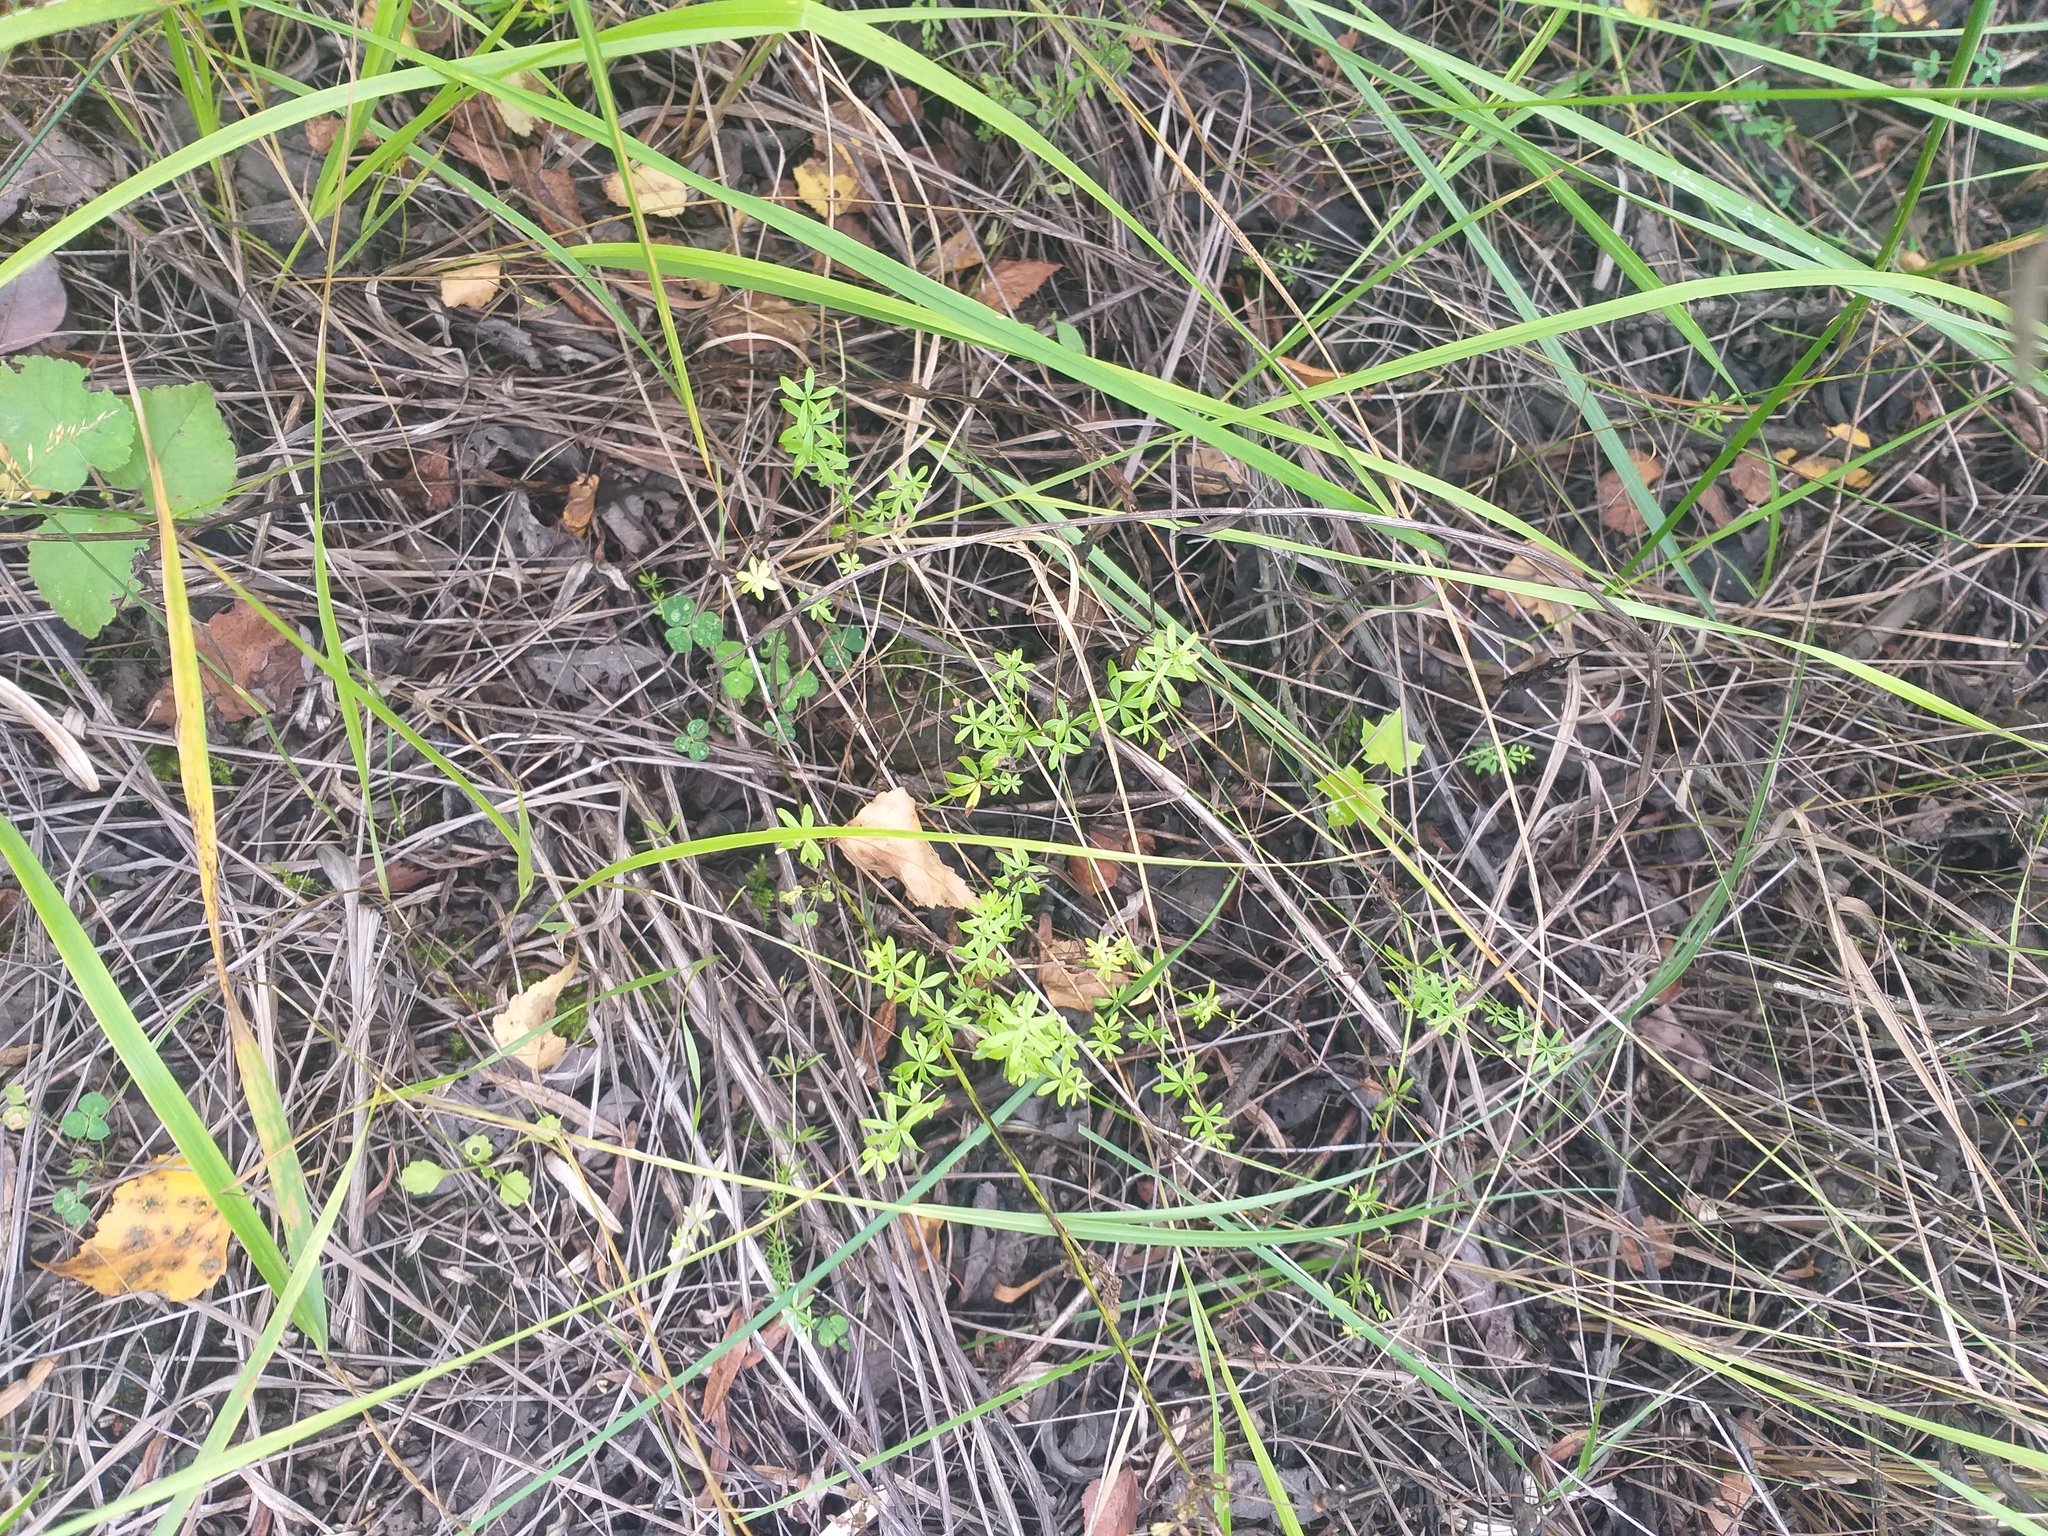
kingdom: Plantae
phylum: Tracheophyta
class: Magnoliopsida
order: Gentianales
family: Rubiaceae
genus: Galium
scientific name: Galium mollugo
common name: Hedge bedstraw
